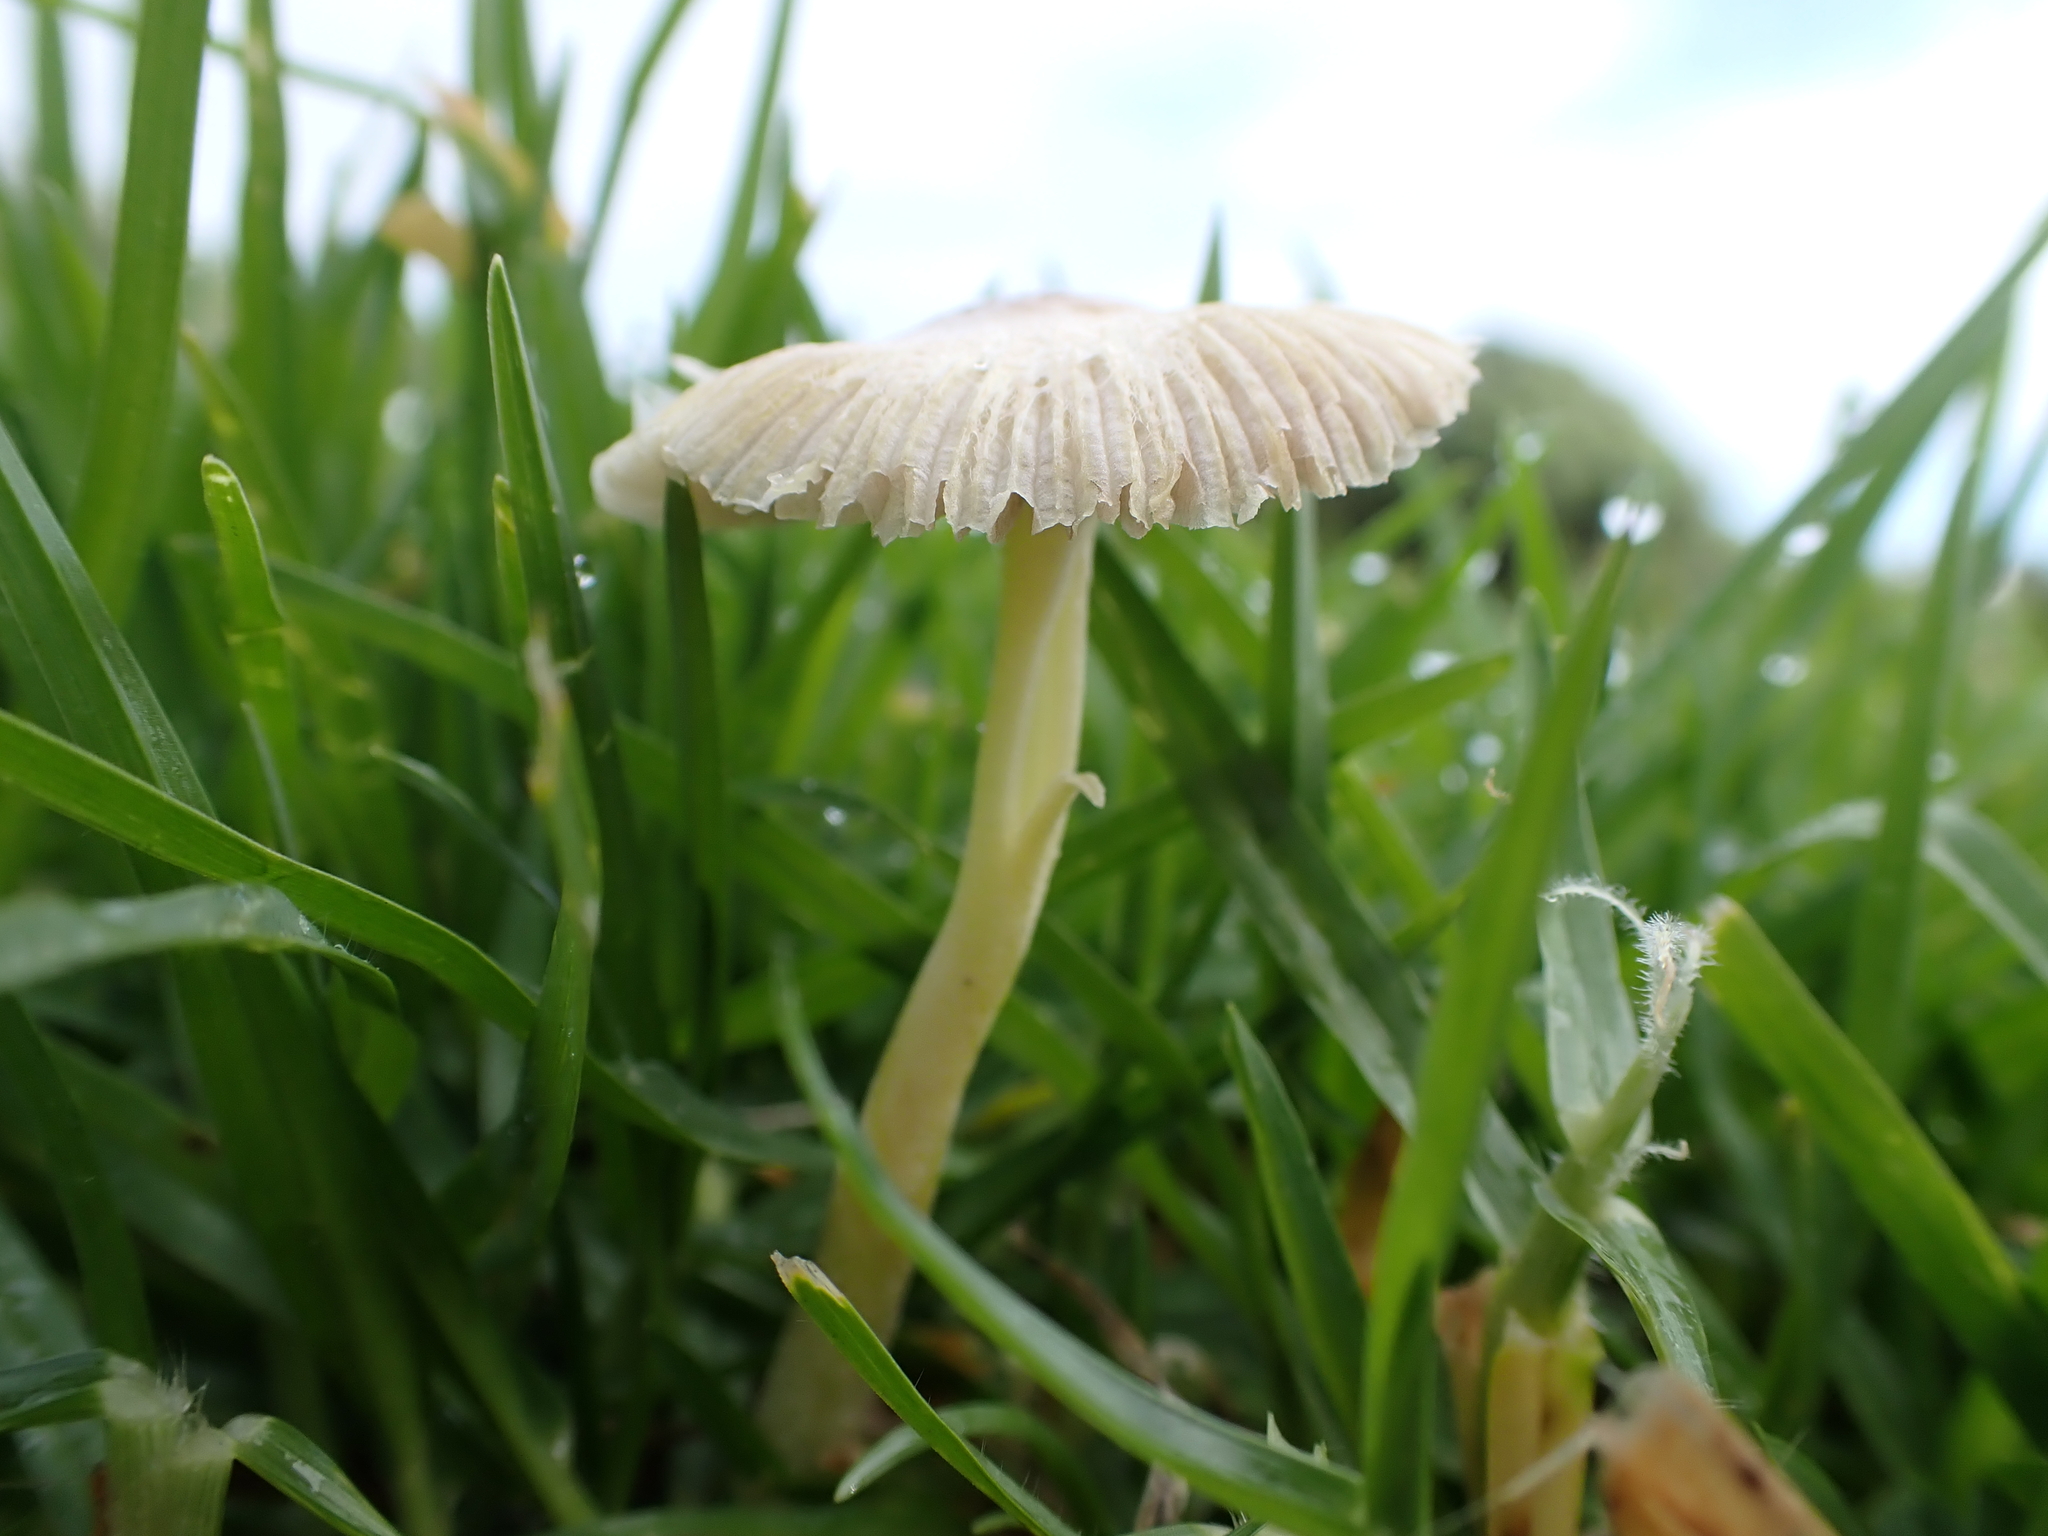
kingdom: Fungi
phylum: Basidiomycota
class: Agaricomycetes
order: Agaricales
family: Bolbitiaceae
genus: Bolbitius
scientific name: Bolbitius titubans
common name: Yellow fieldcap
